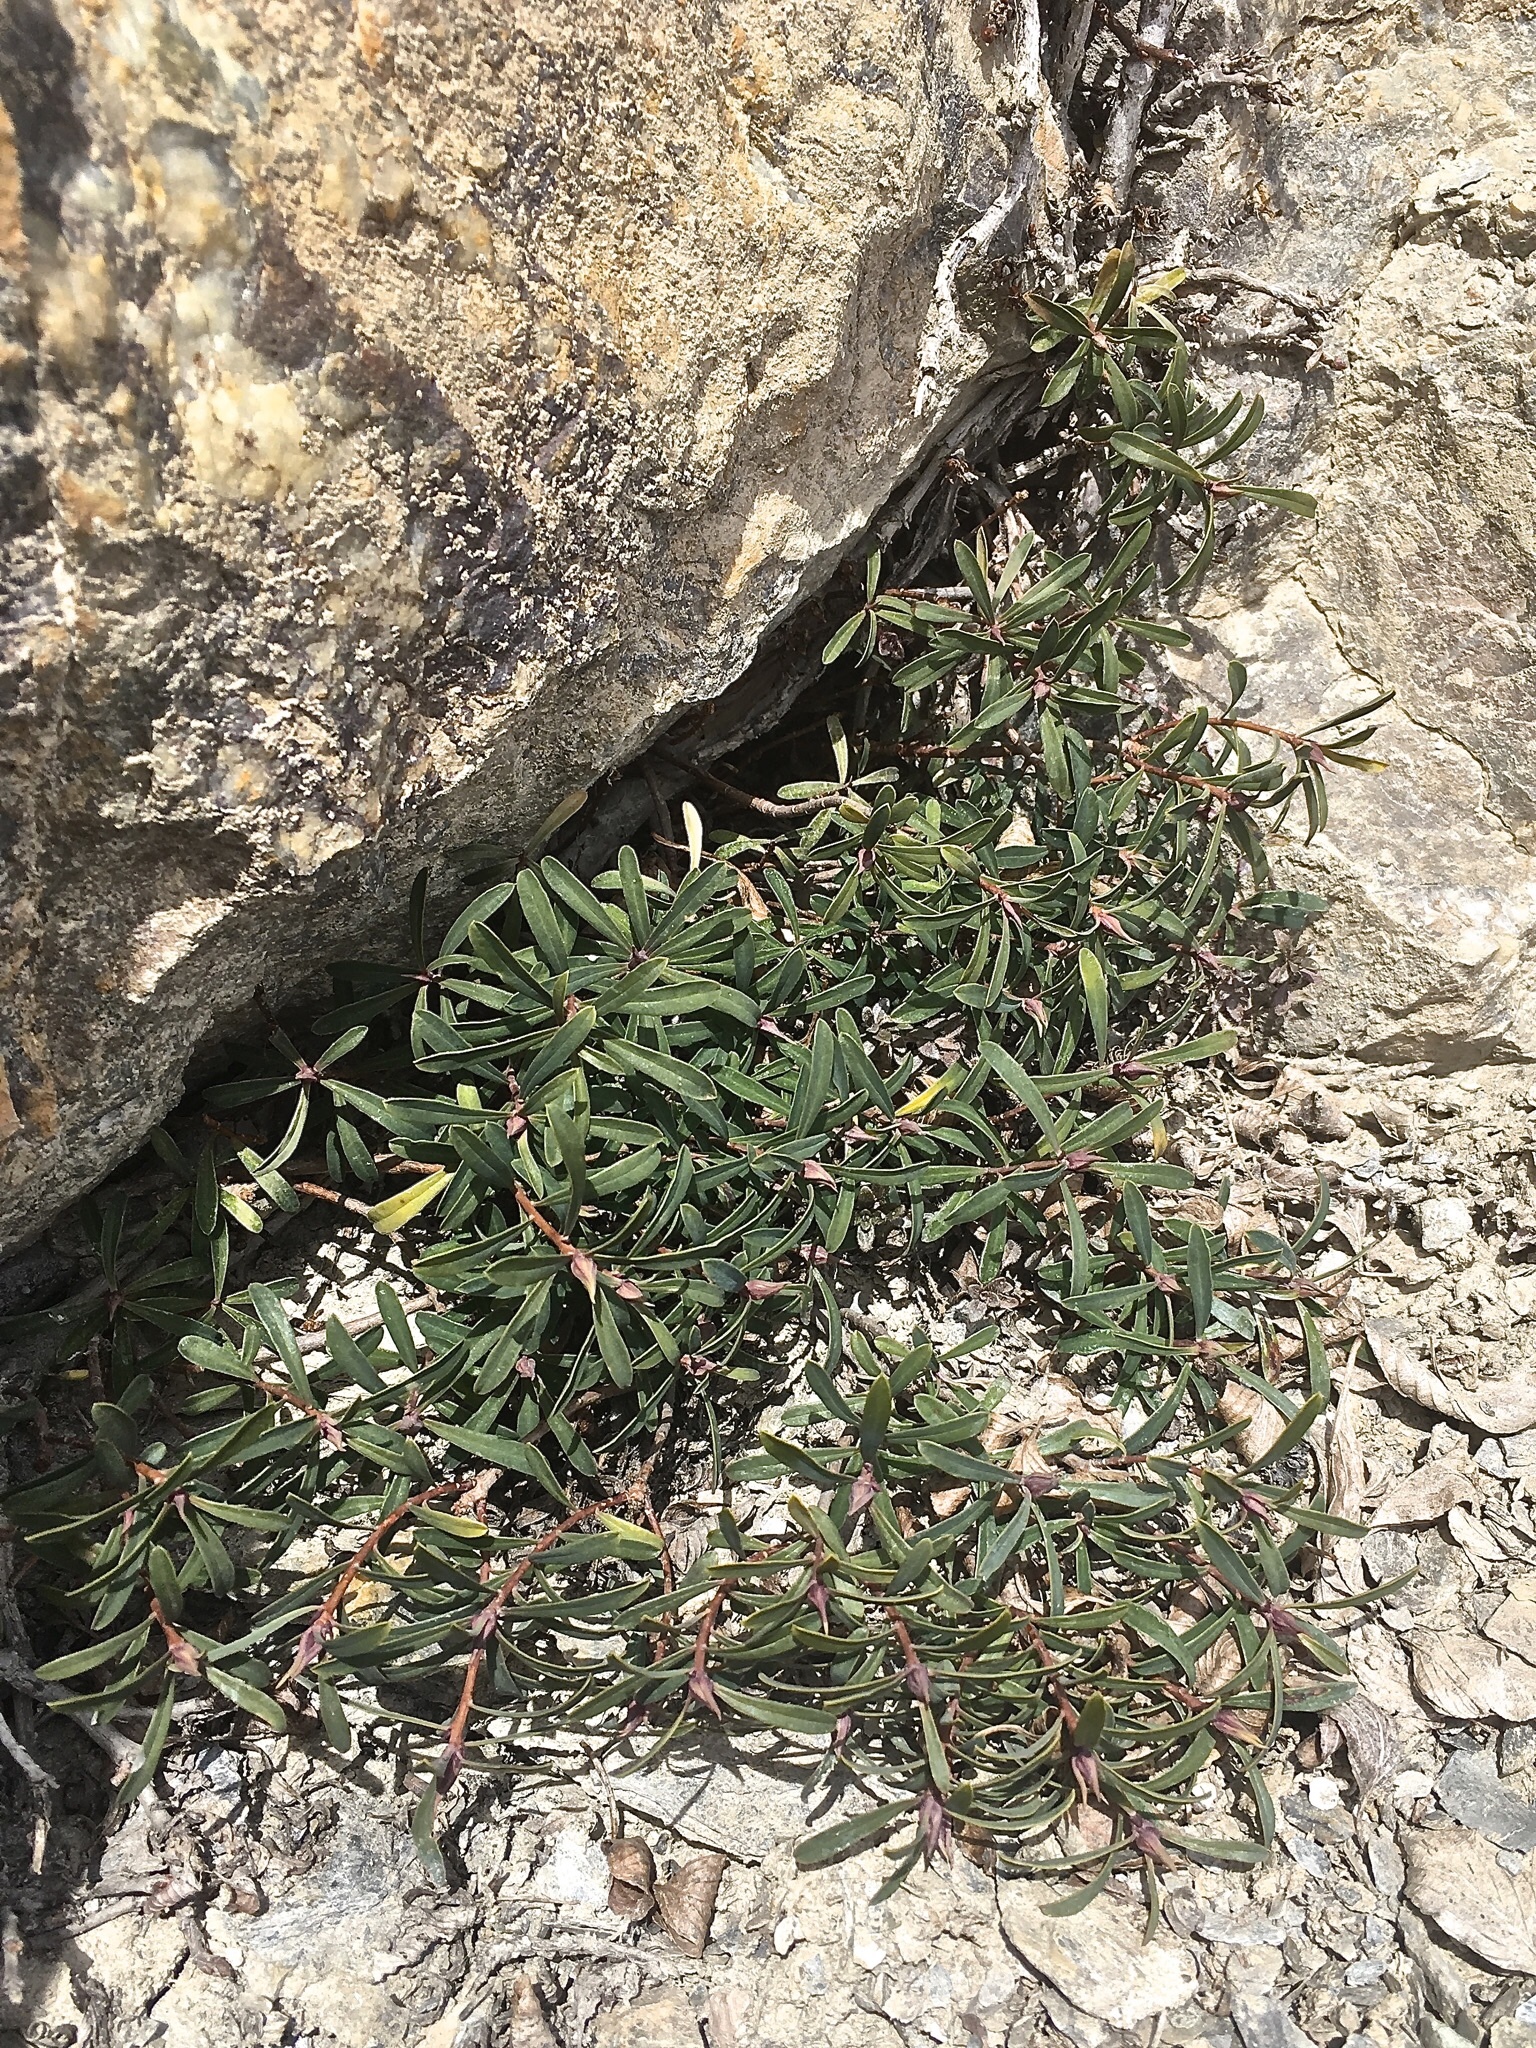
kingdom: Plantae
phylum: Tracheophyta
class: Magnoliopsida
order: Malvales
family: Thymelaeaceae
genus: Daphne
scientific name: Daphne striata
